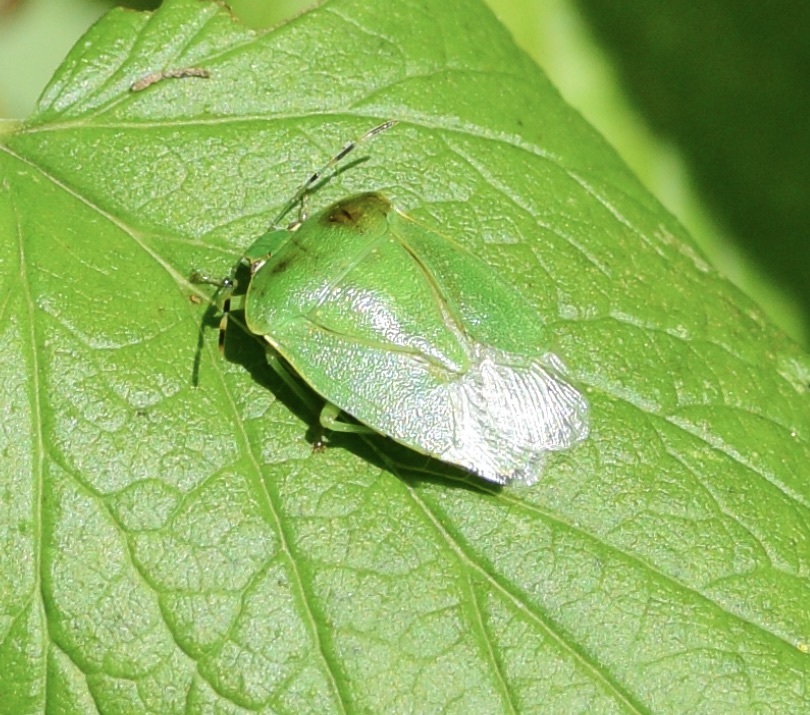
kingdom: Animalia
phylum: Arthropoda
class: Insecta
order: Hemiptera
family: Pentatomidae
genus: Chinavia
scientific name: Chinavia hilaris
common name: Green stink bug
